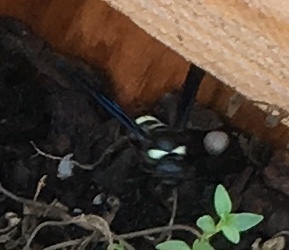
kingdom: Animalia
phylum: Arthropoda
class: Insecta
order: Hymenoptera
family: Eumenidae
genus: Monobia
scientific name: Monobia quadridens
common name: Four-toothed mason wasp
